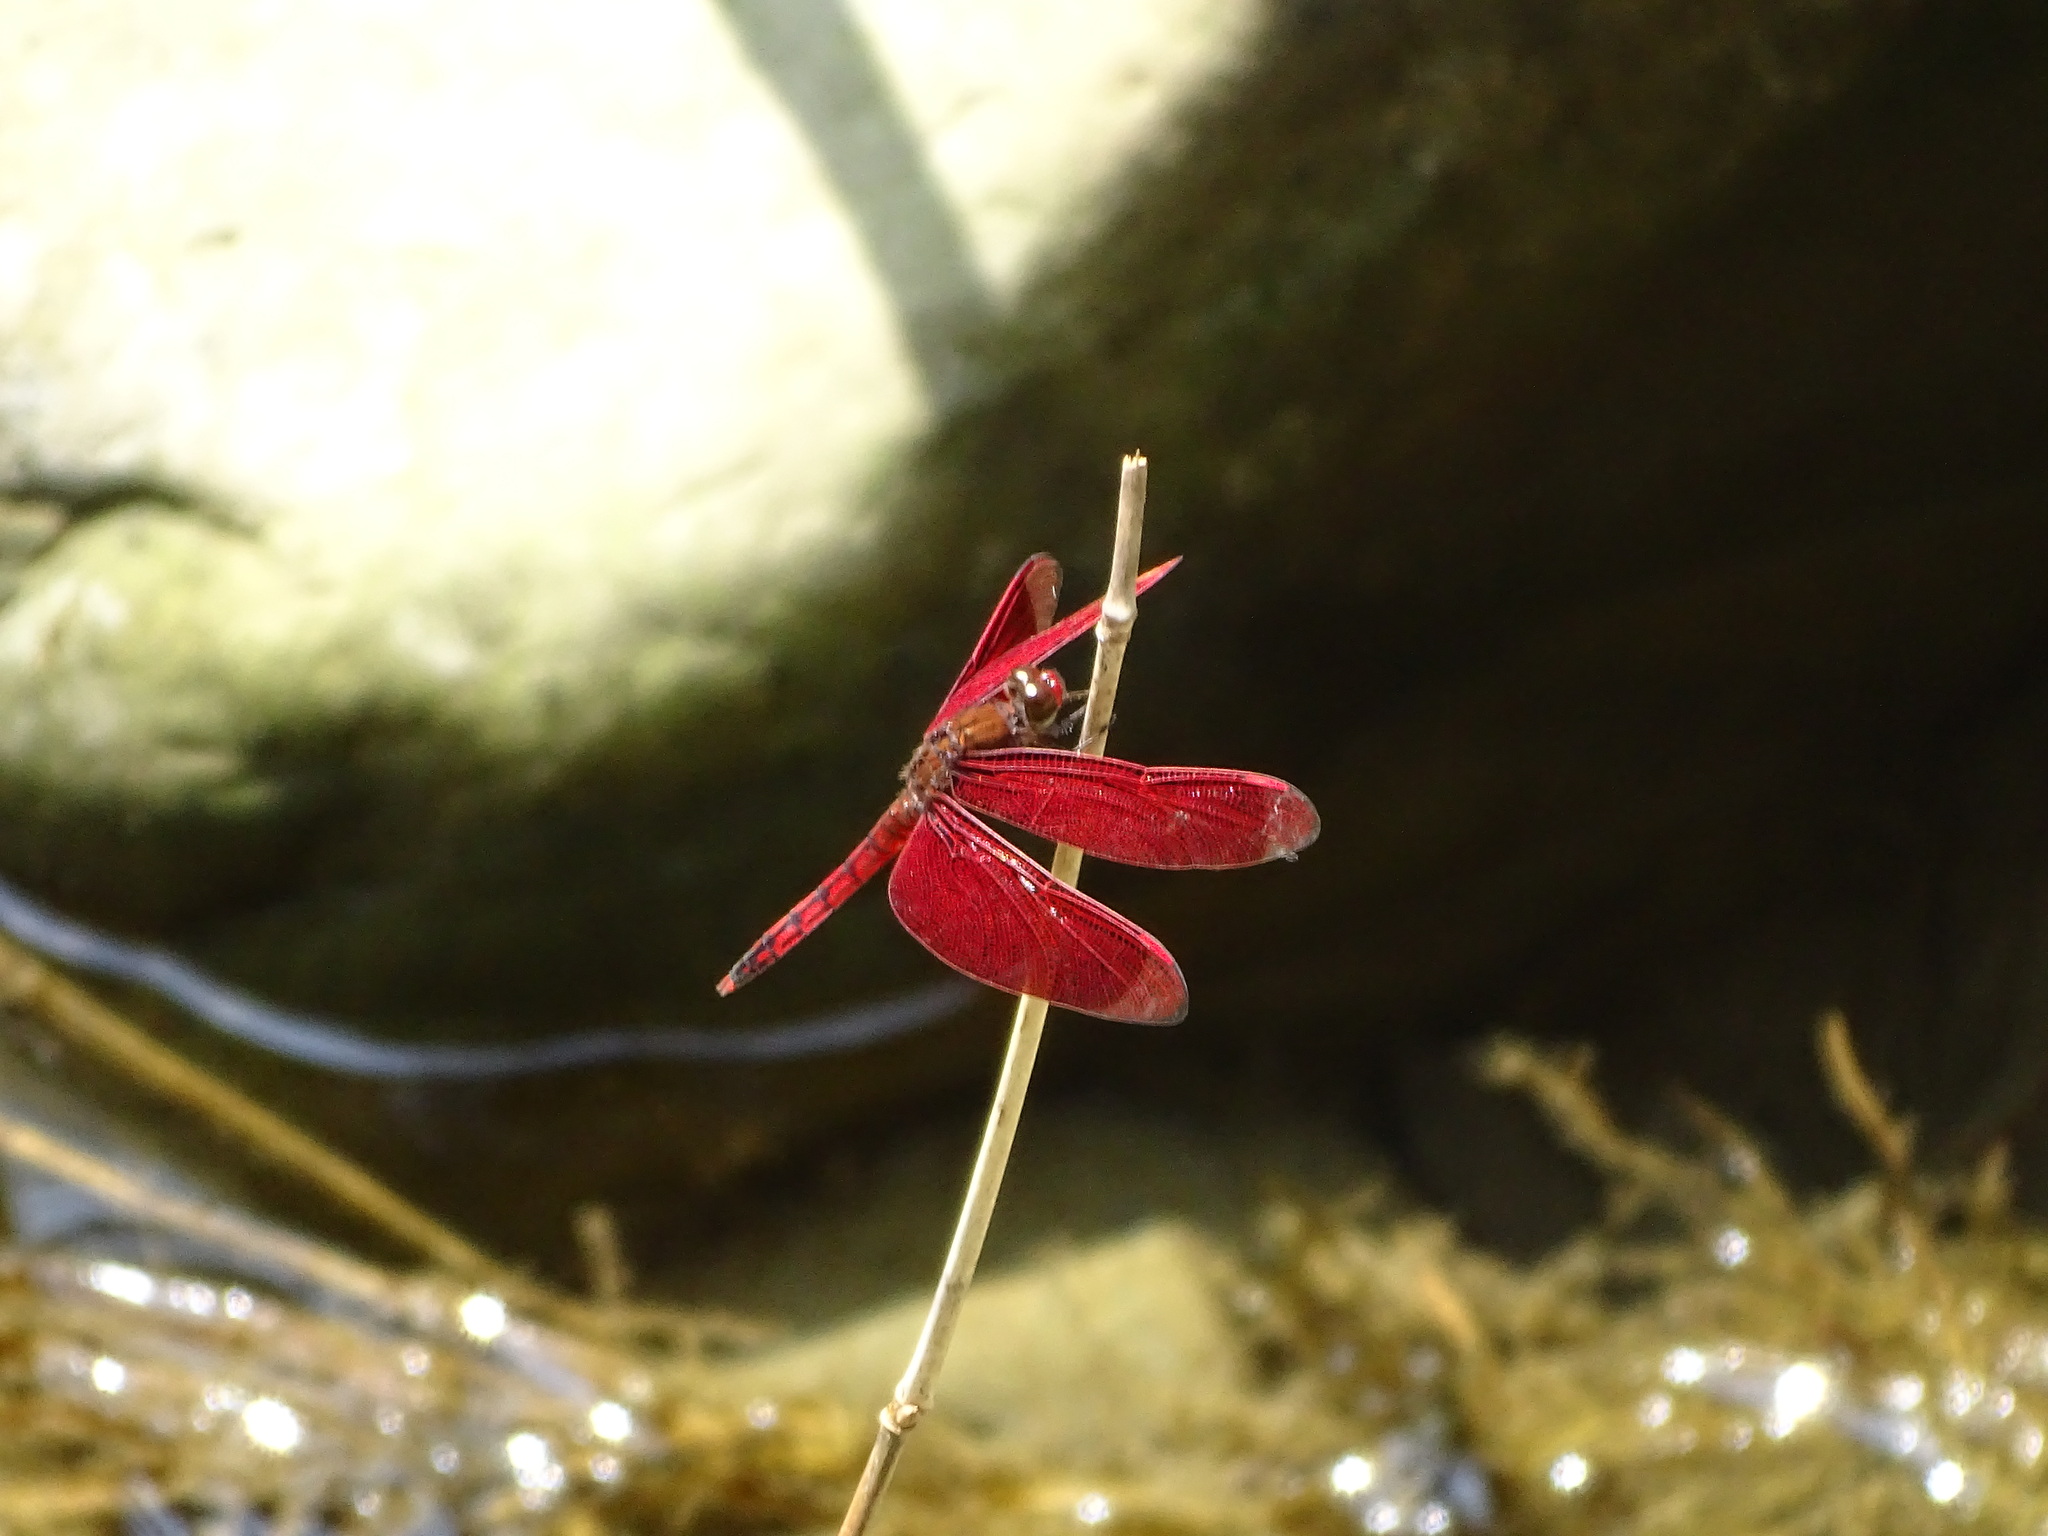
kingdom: Animalia
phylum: Arthropoda
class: Insecta
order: Odonata
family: Libellulidae
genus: Neurothemis
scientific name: Neurothemis taiwanensis
